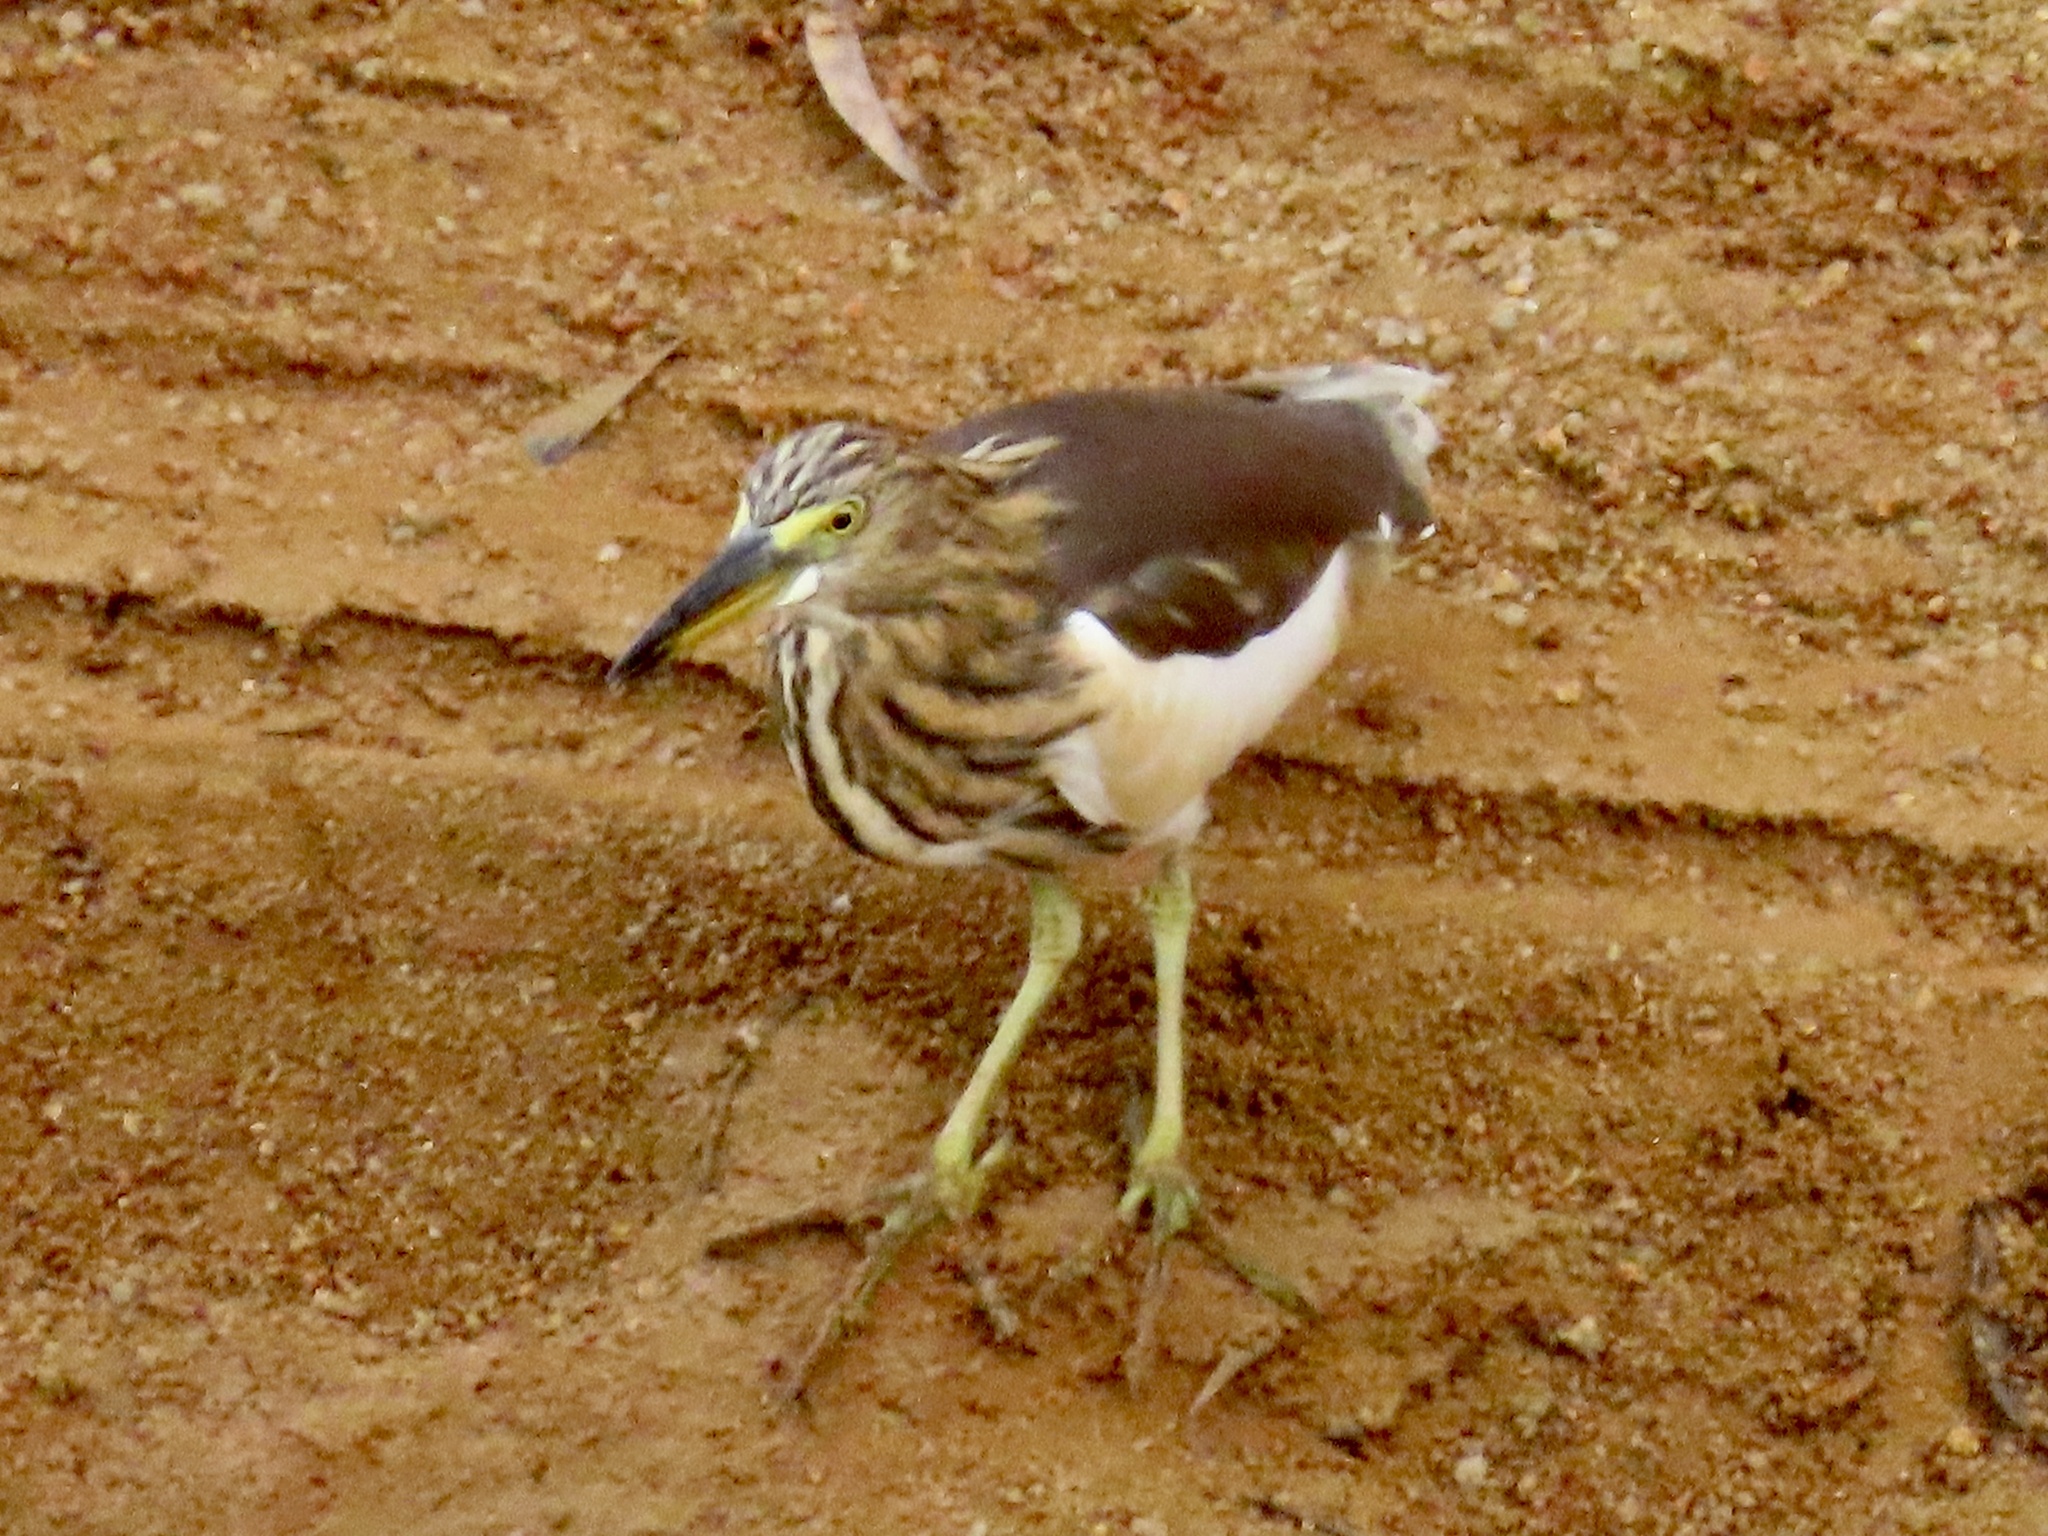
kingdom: Animalia
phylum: Chordata
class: Aves
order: Pelecaniformes
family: Ardeidae
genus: Ardeola
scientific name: Ardeola bacchus
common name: Chinese pond heron
